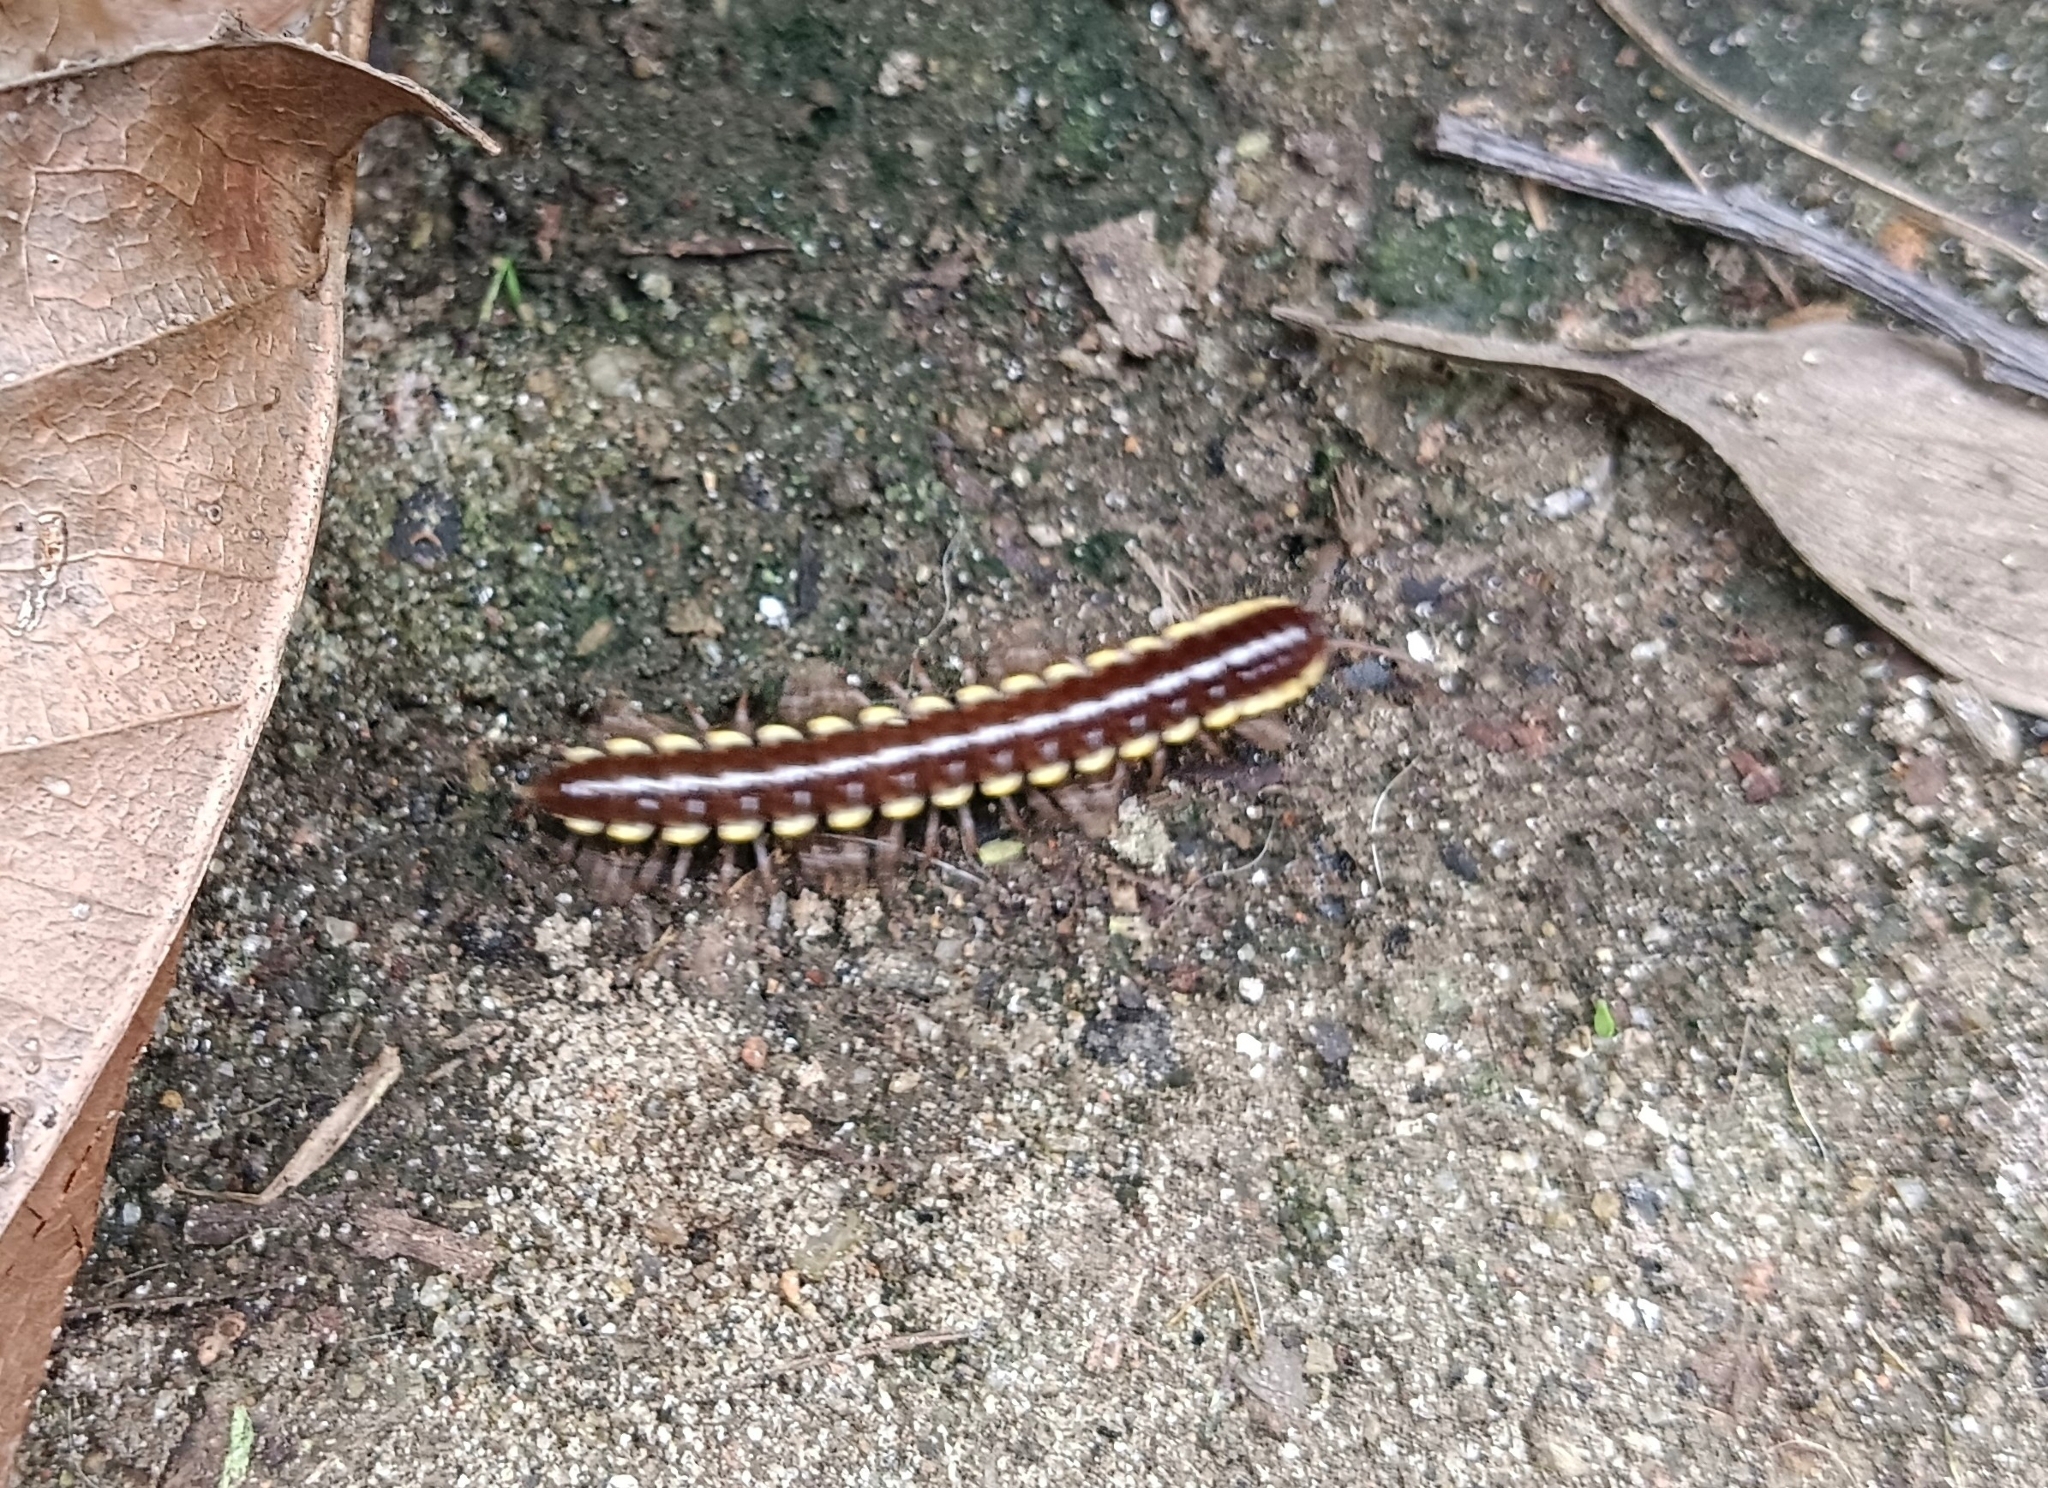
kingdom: Animalia
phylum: Arthropoda
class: Diplopoda
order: Polydesmida
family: Paradoxosomatidae
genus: Anoplodesmus
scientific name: Anoplodesmus saussurii
